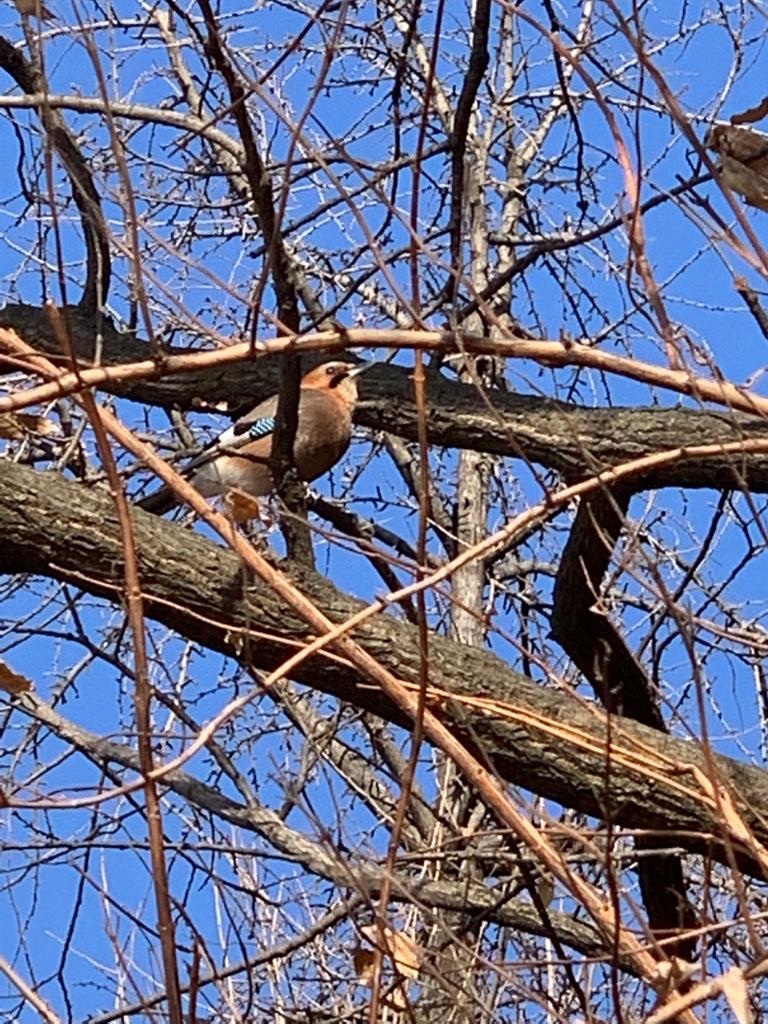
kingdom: Animalia
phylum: Chordata
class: Aves
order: Passeriformes
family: Corvidae
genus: Garrulus
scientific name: Garrulus glandarius
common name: Eurasian jay
